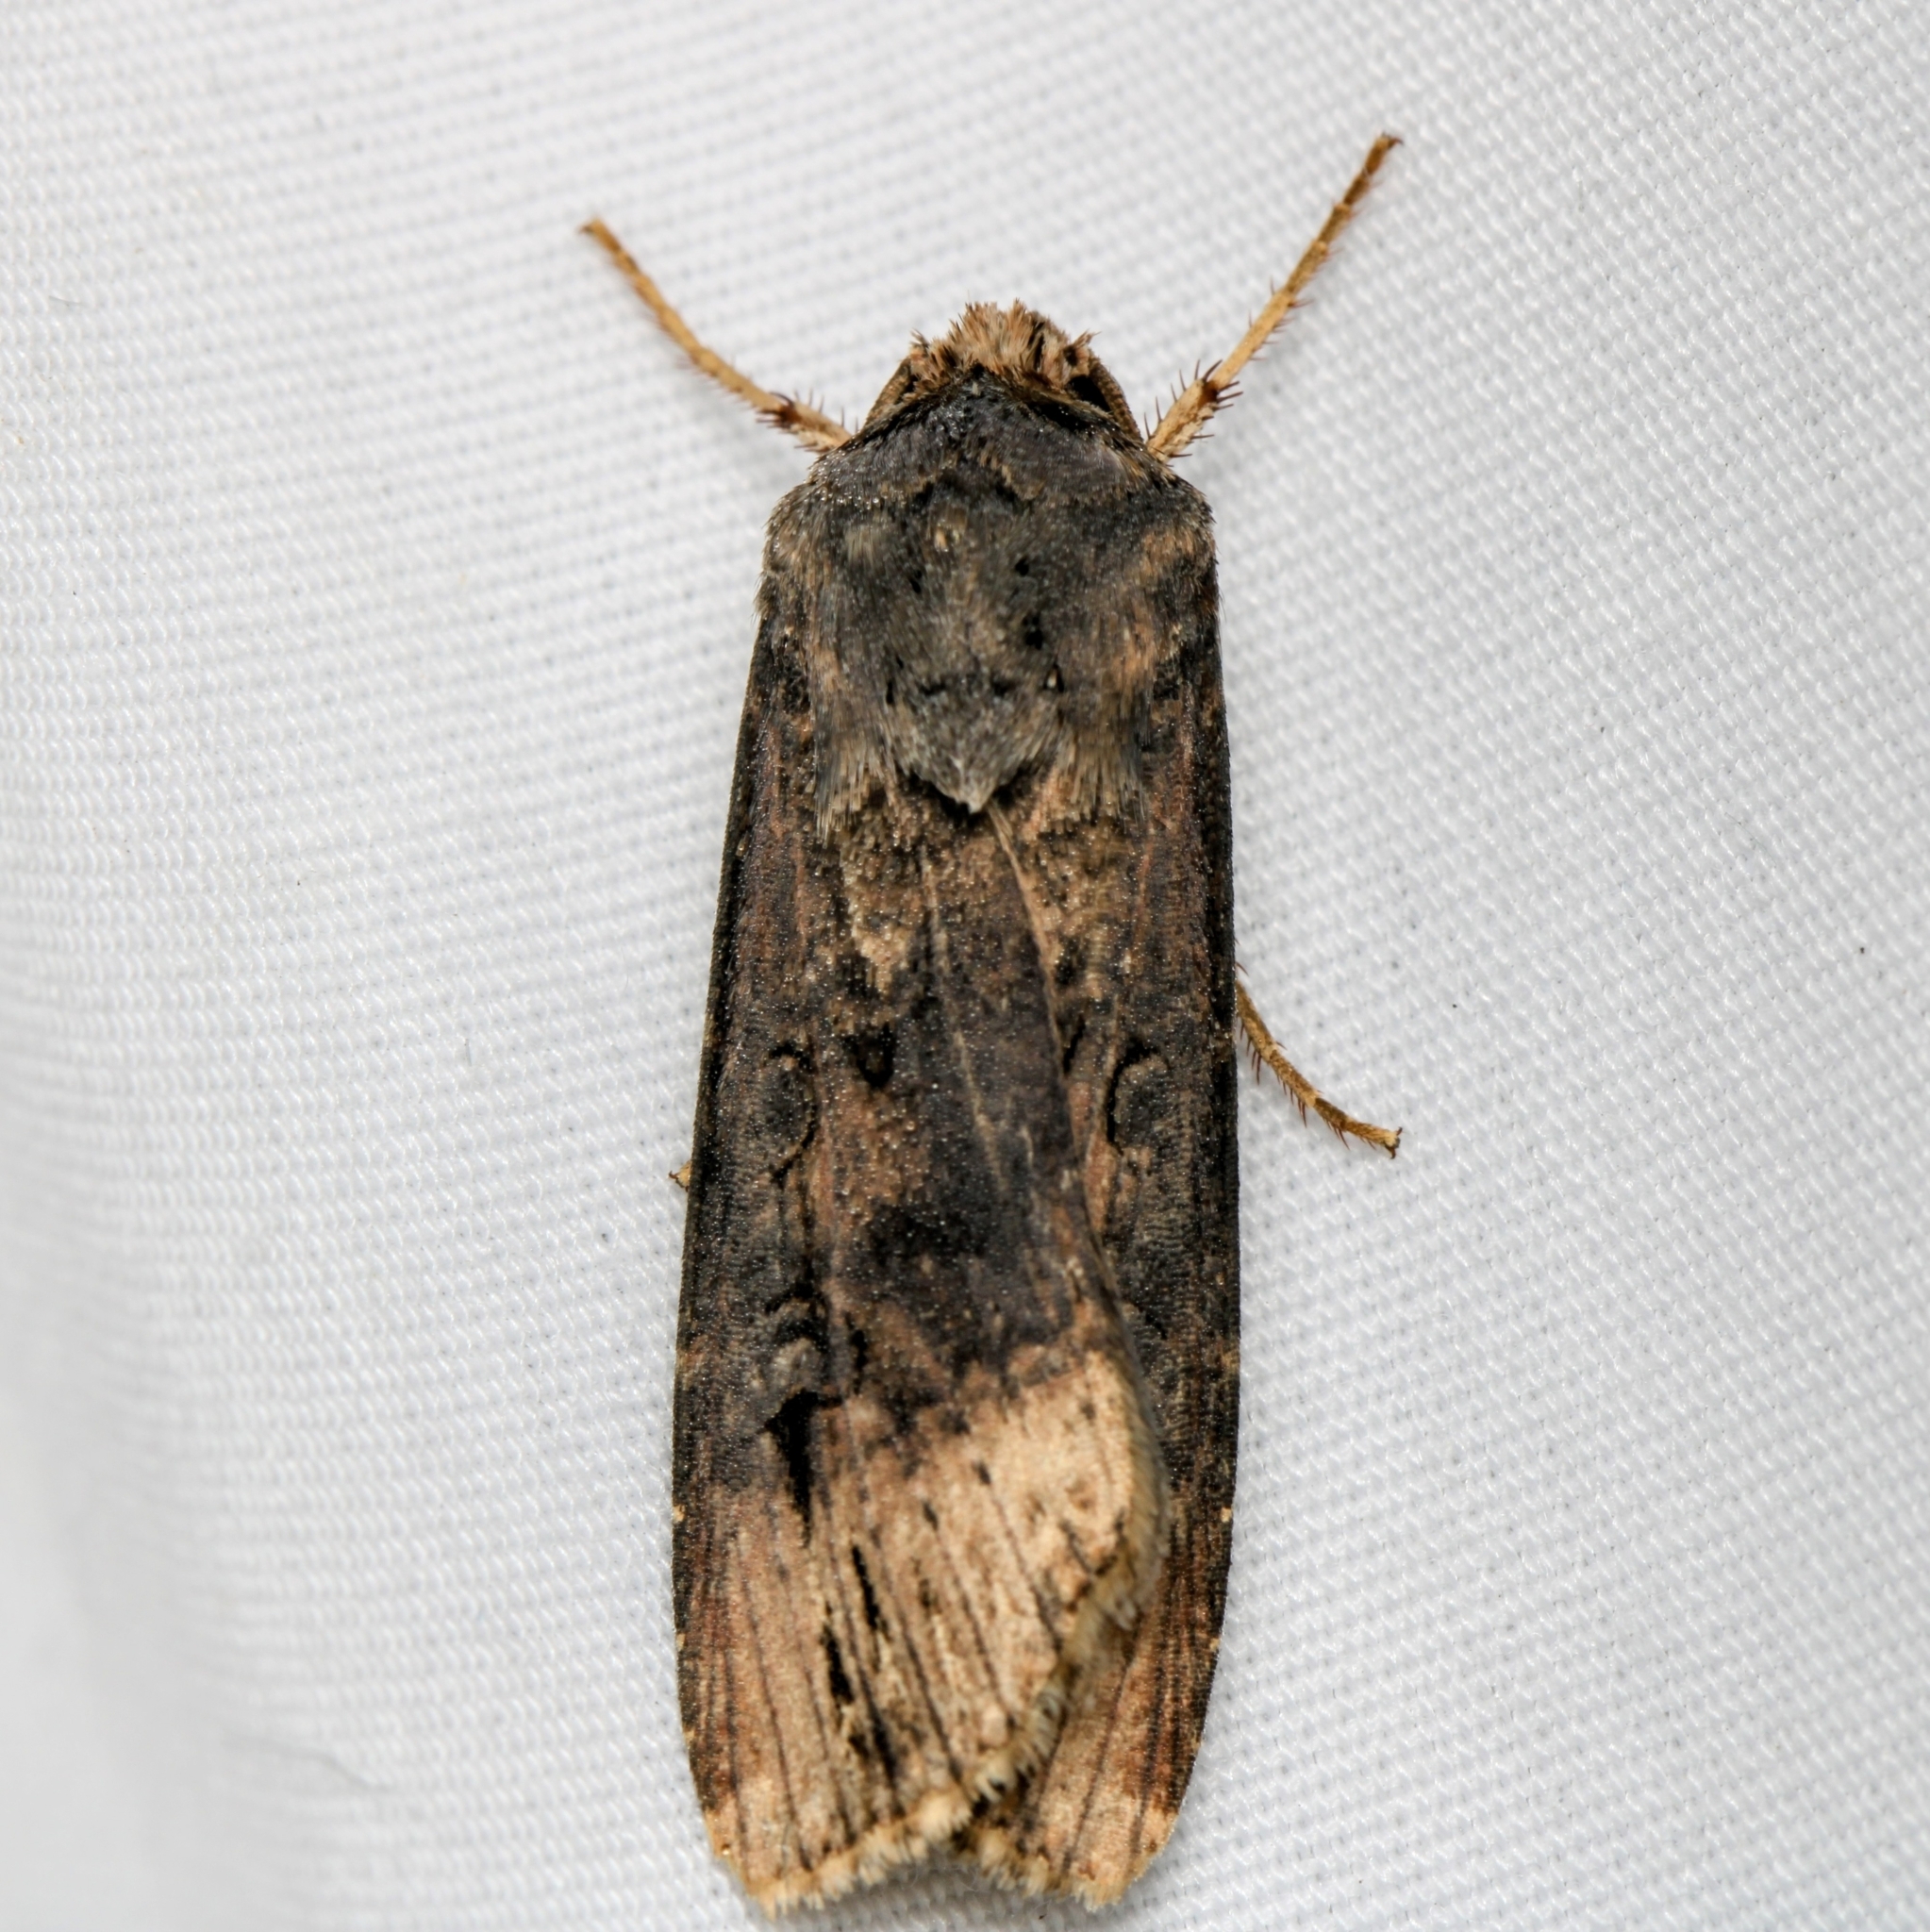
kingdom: Animalia
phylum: Arthropoda
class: Insecta
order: Lepidoptera
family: Noctuidae
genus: Agrotis
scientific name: Agrotis ipsilon
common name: Dark sword-grass
